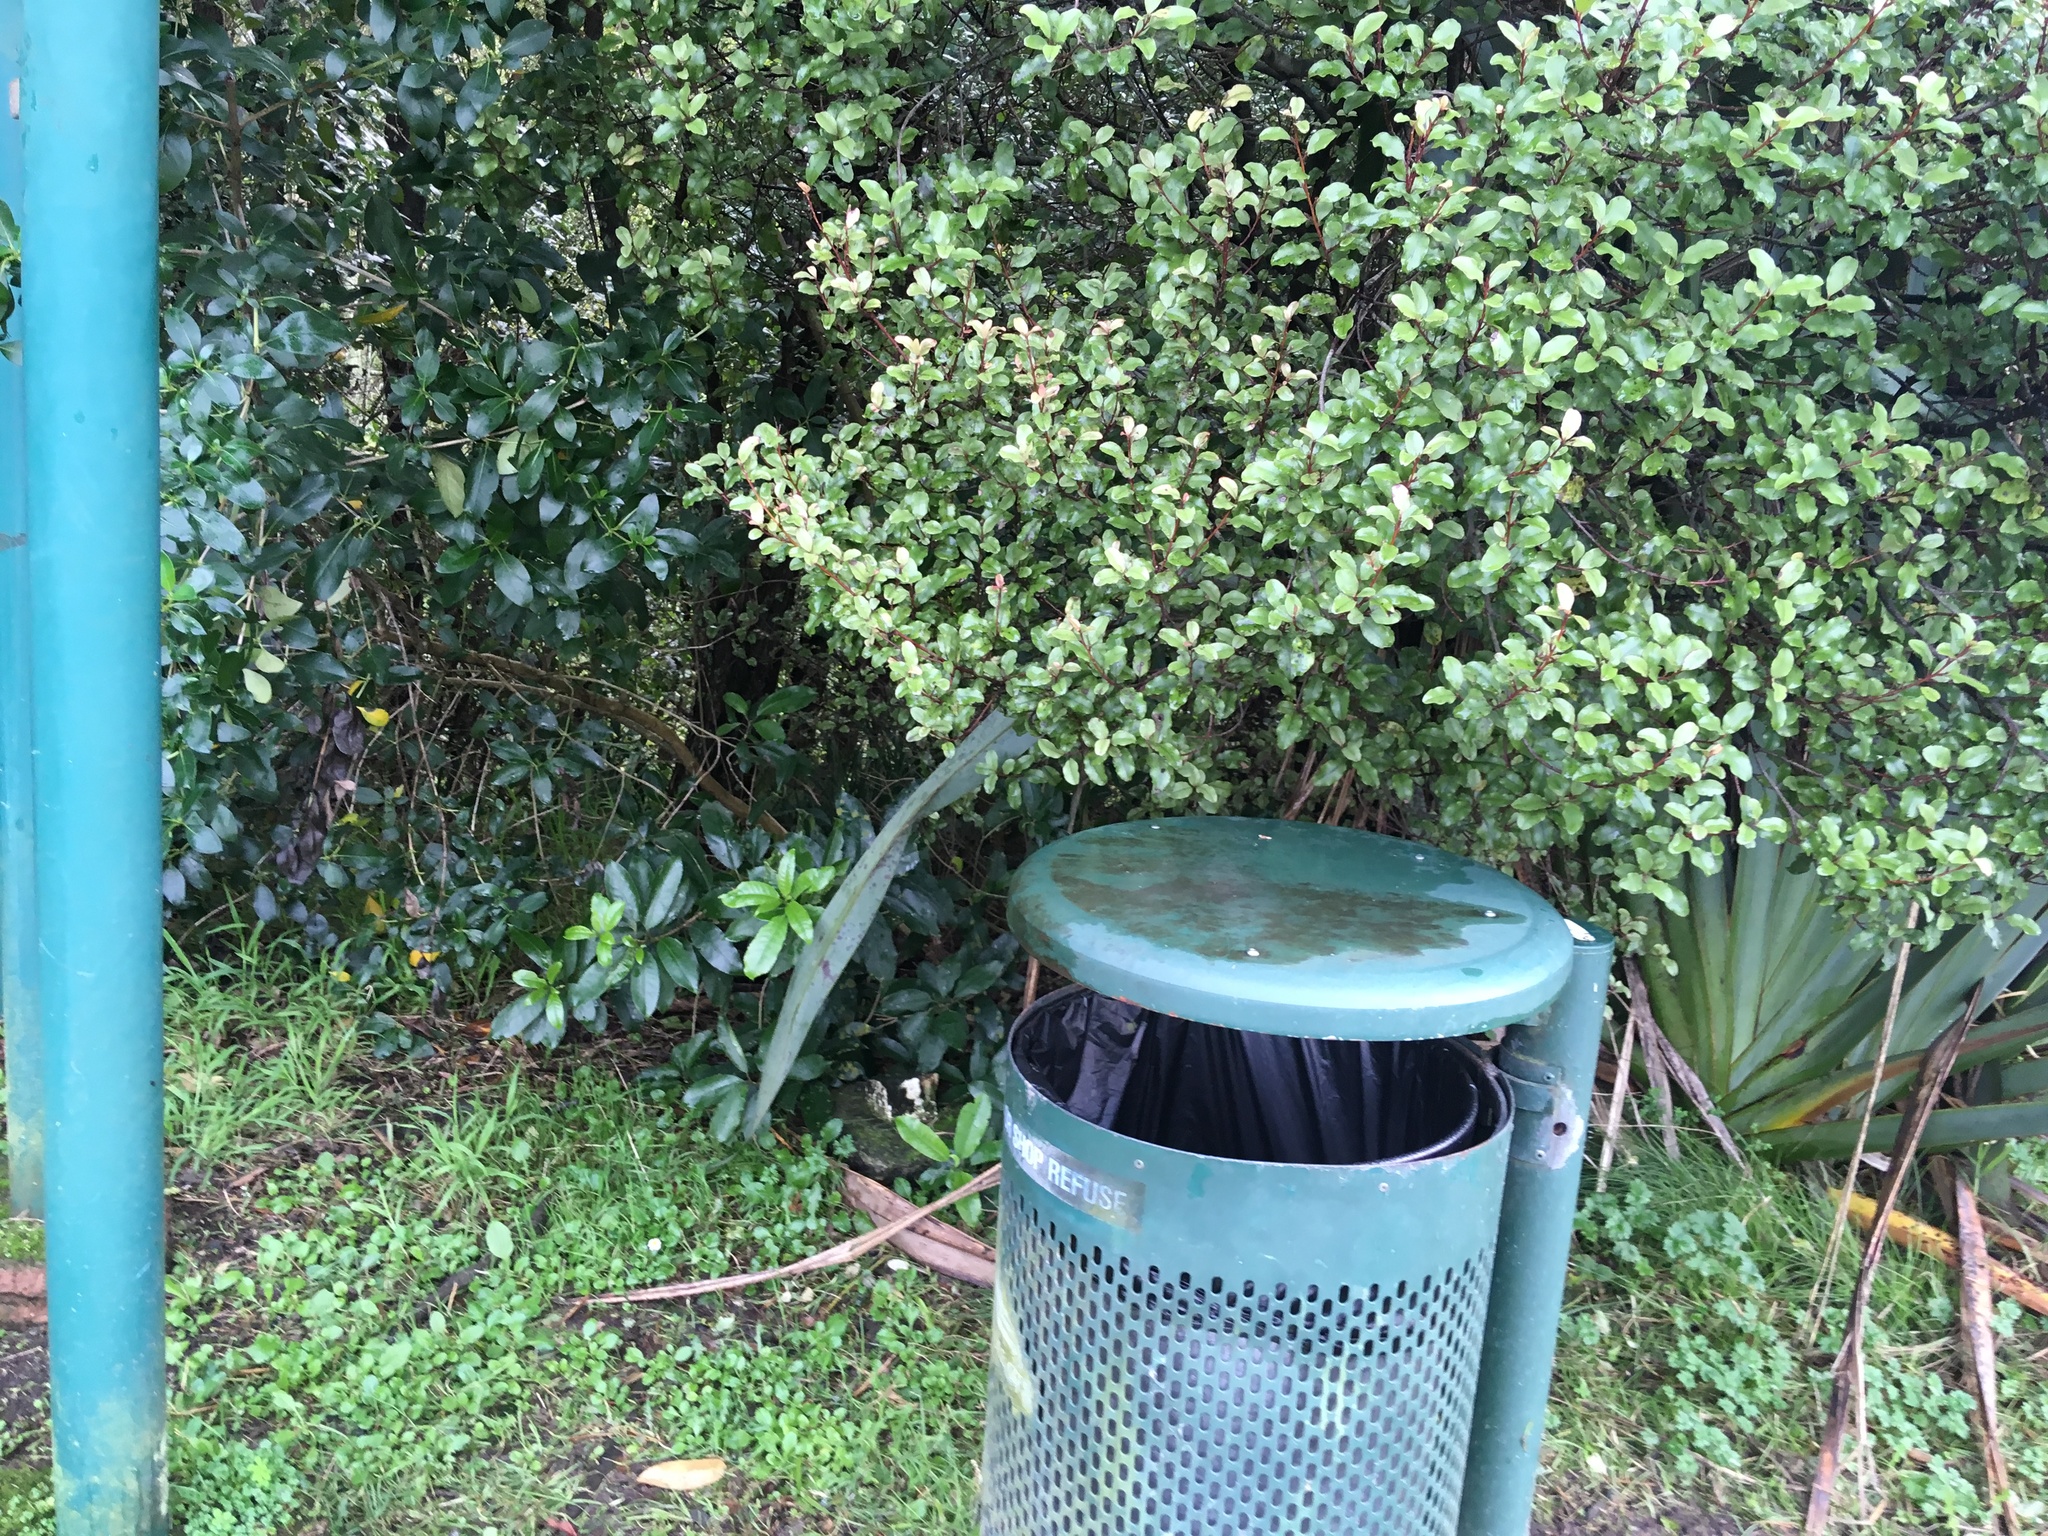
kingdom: Plantae
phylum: Tracheophyta
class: Magnoliopsida
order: Ericales
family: Primulaceae
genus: Myrsine
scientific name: Myrsine australis
